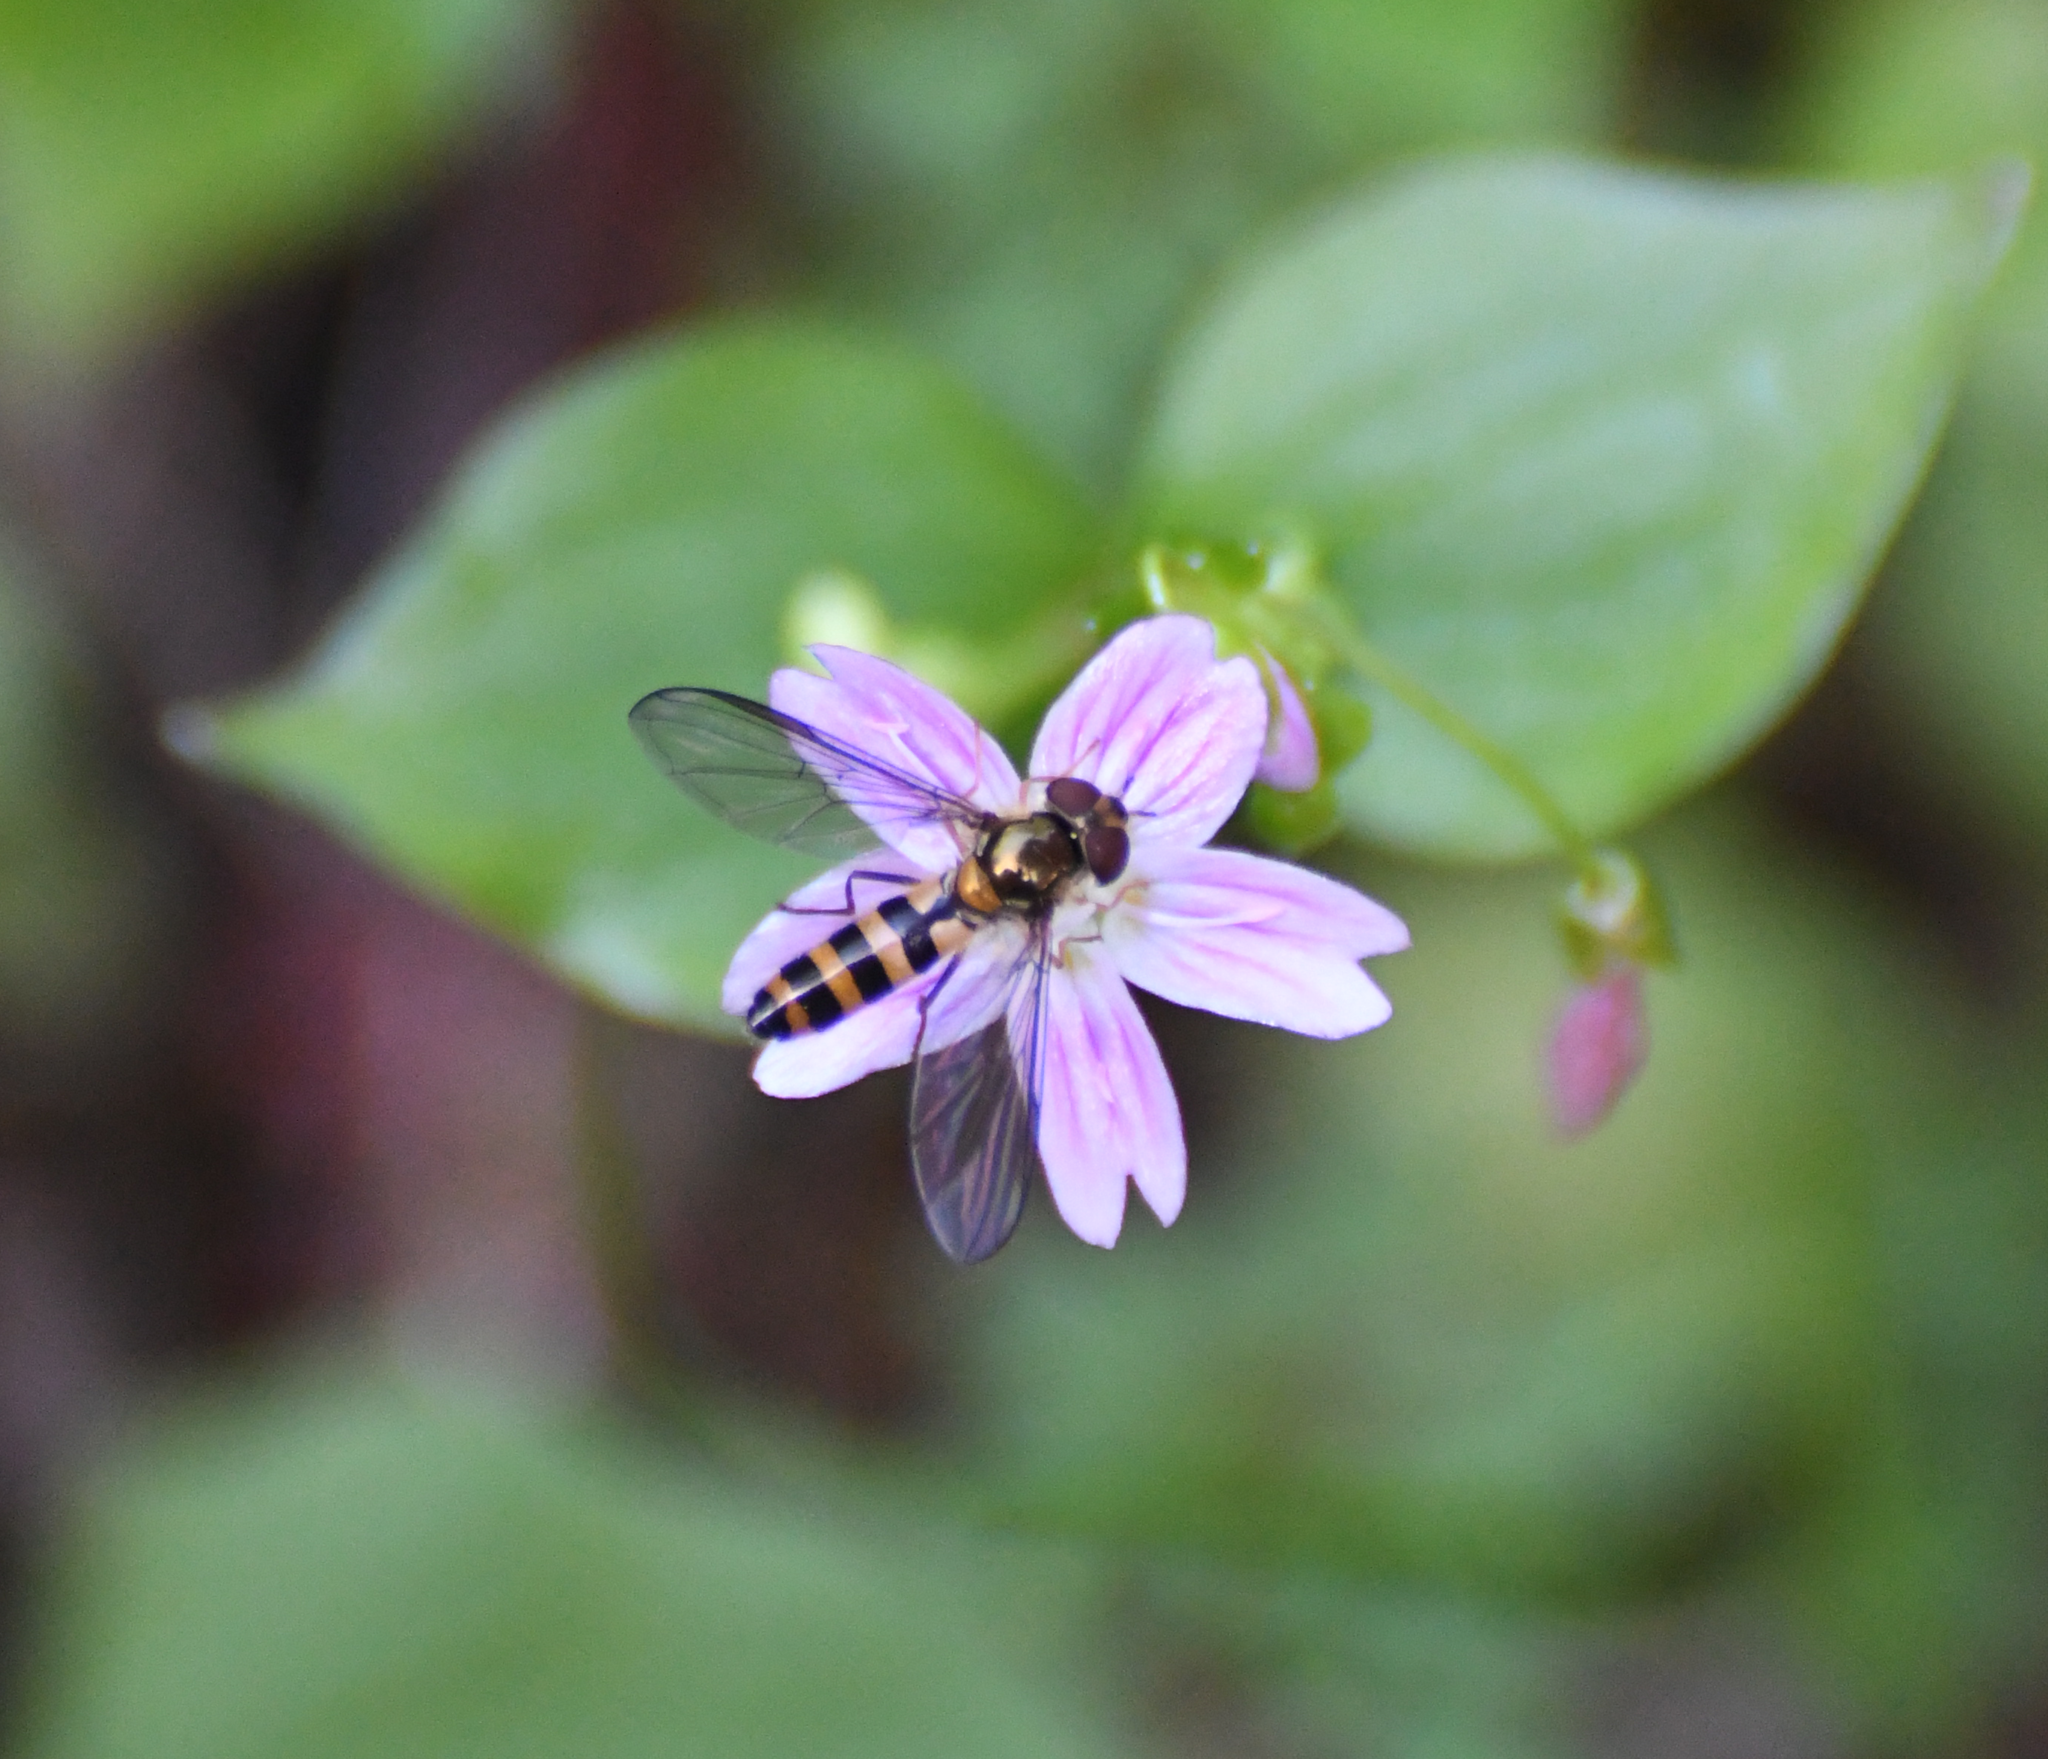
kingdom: Animalia
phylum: Arthropoda
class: Insecta
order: Diptera
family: Syrphidae
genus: Meliscaeva
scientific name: Meliscaeva cinctella
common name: American thintail fly
